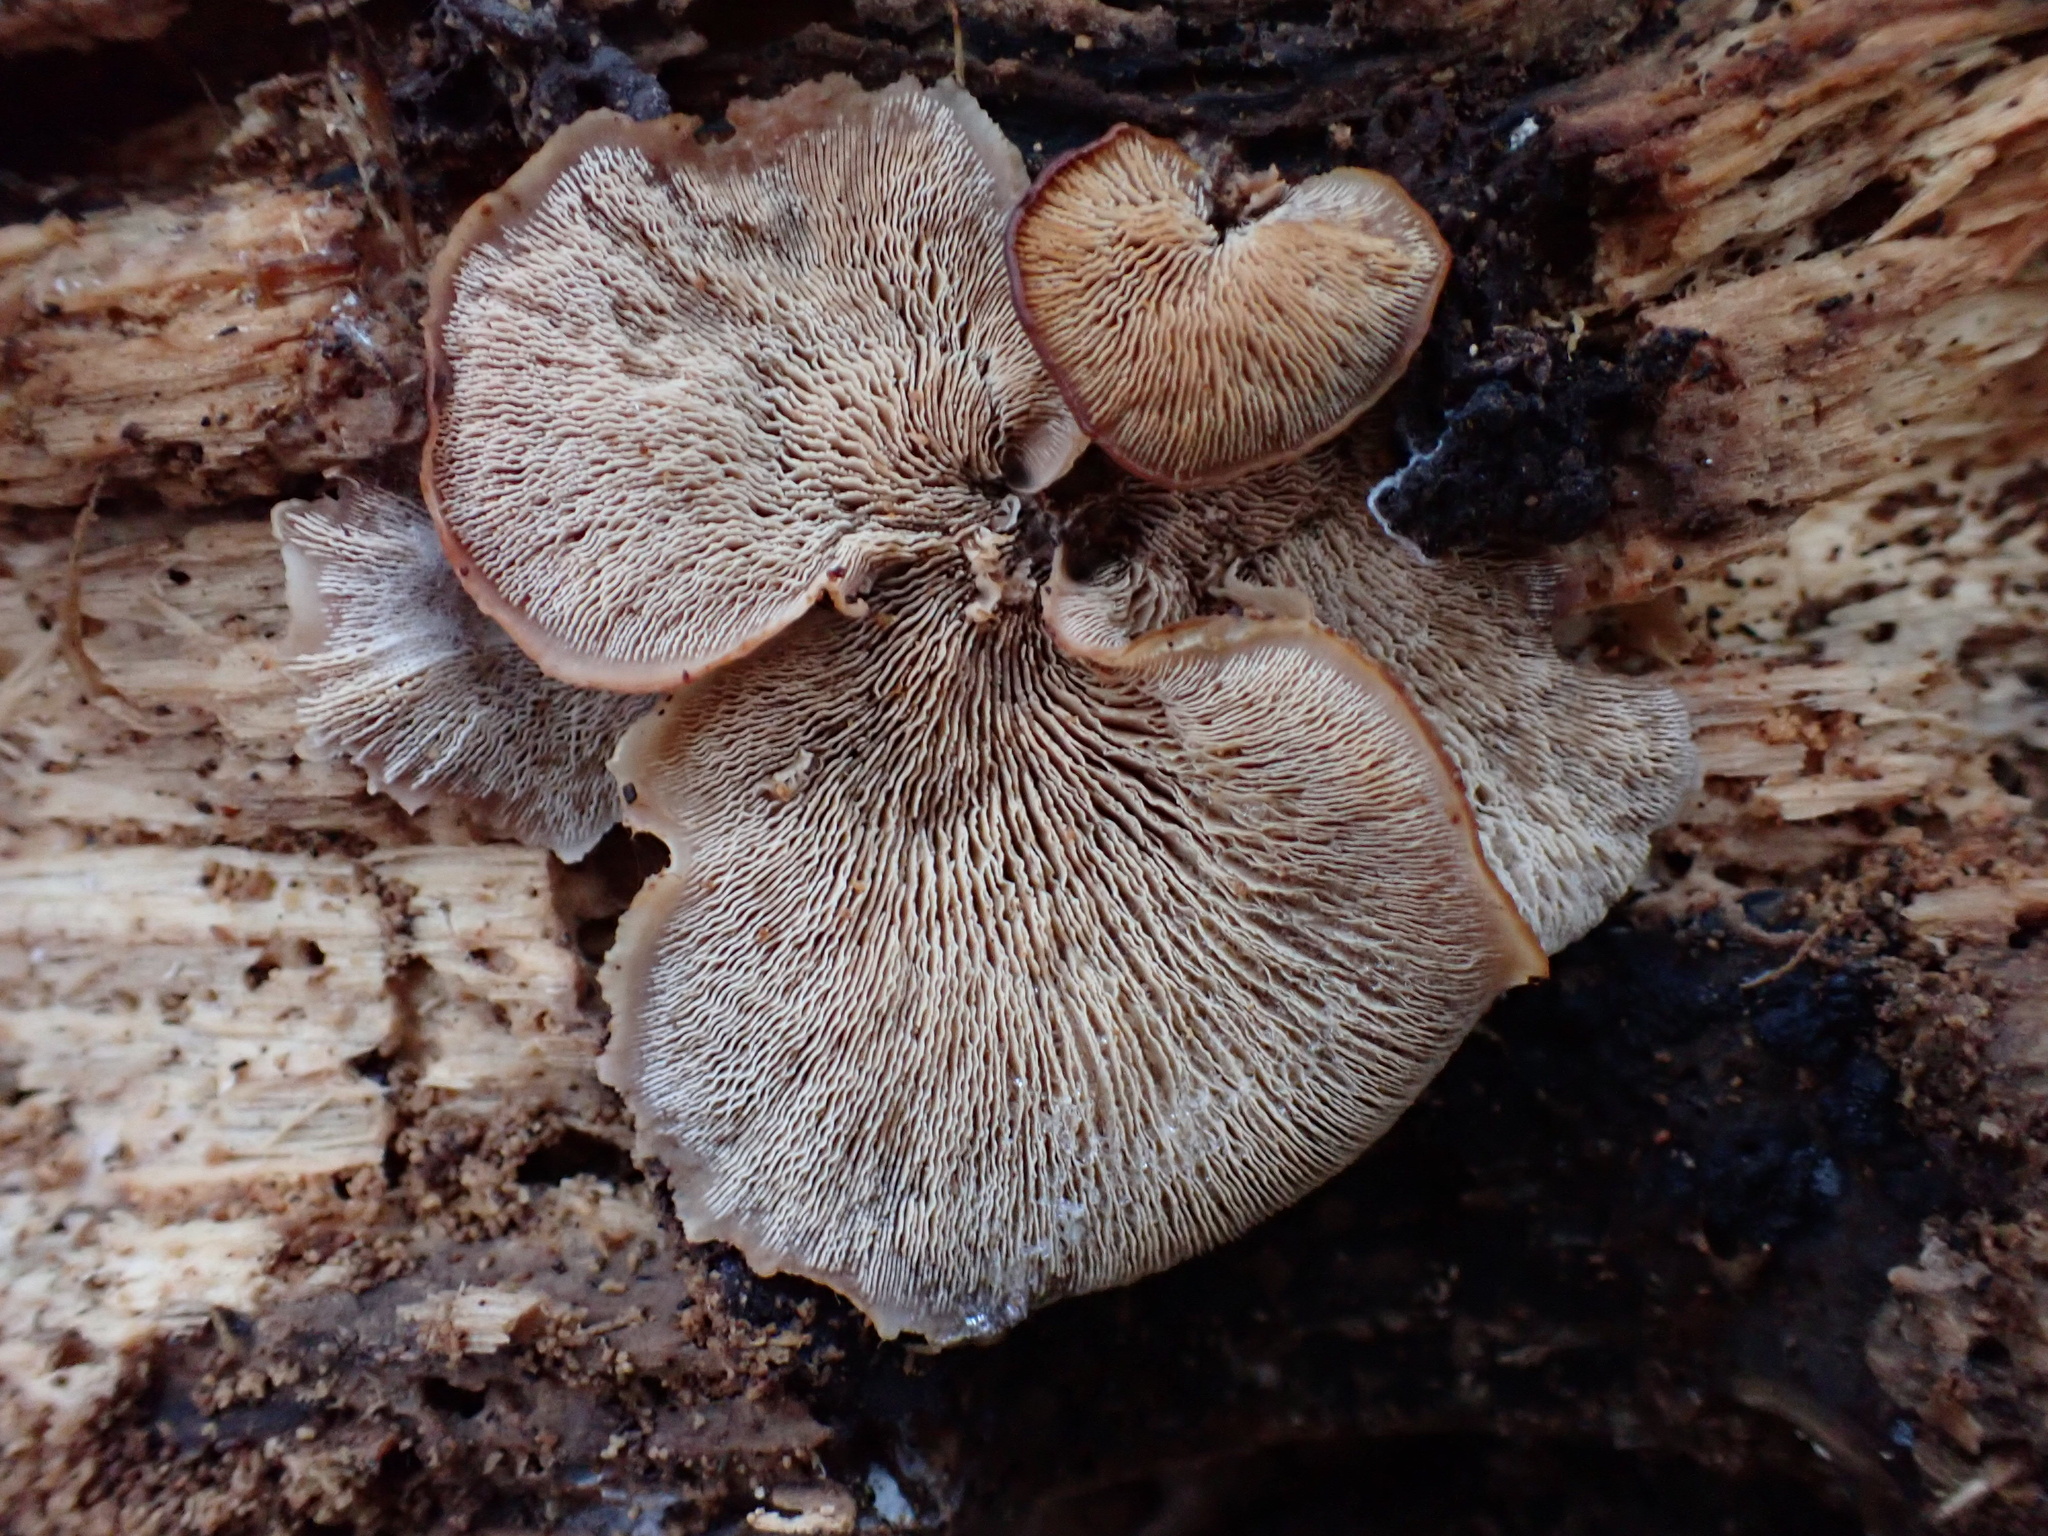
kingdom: Fungi
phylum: Basidiomycota
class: Agaricomycetes
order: Russulales
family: Auriscalpiaceae
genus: Lentinellus
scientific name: Lentinellus ursinus
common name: Bear lentinus
